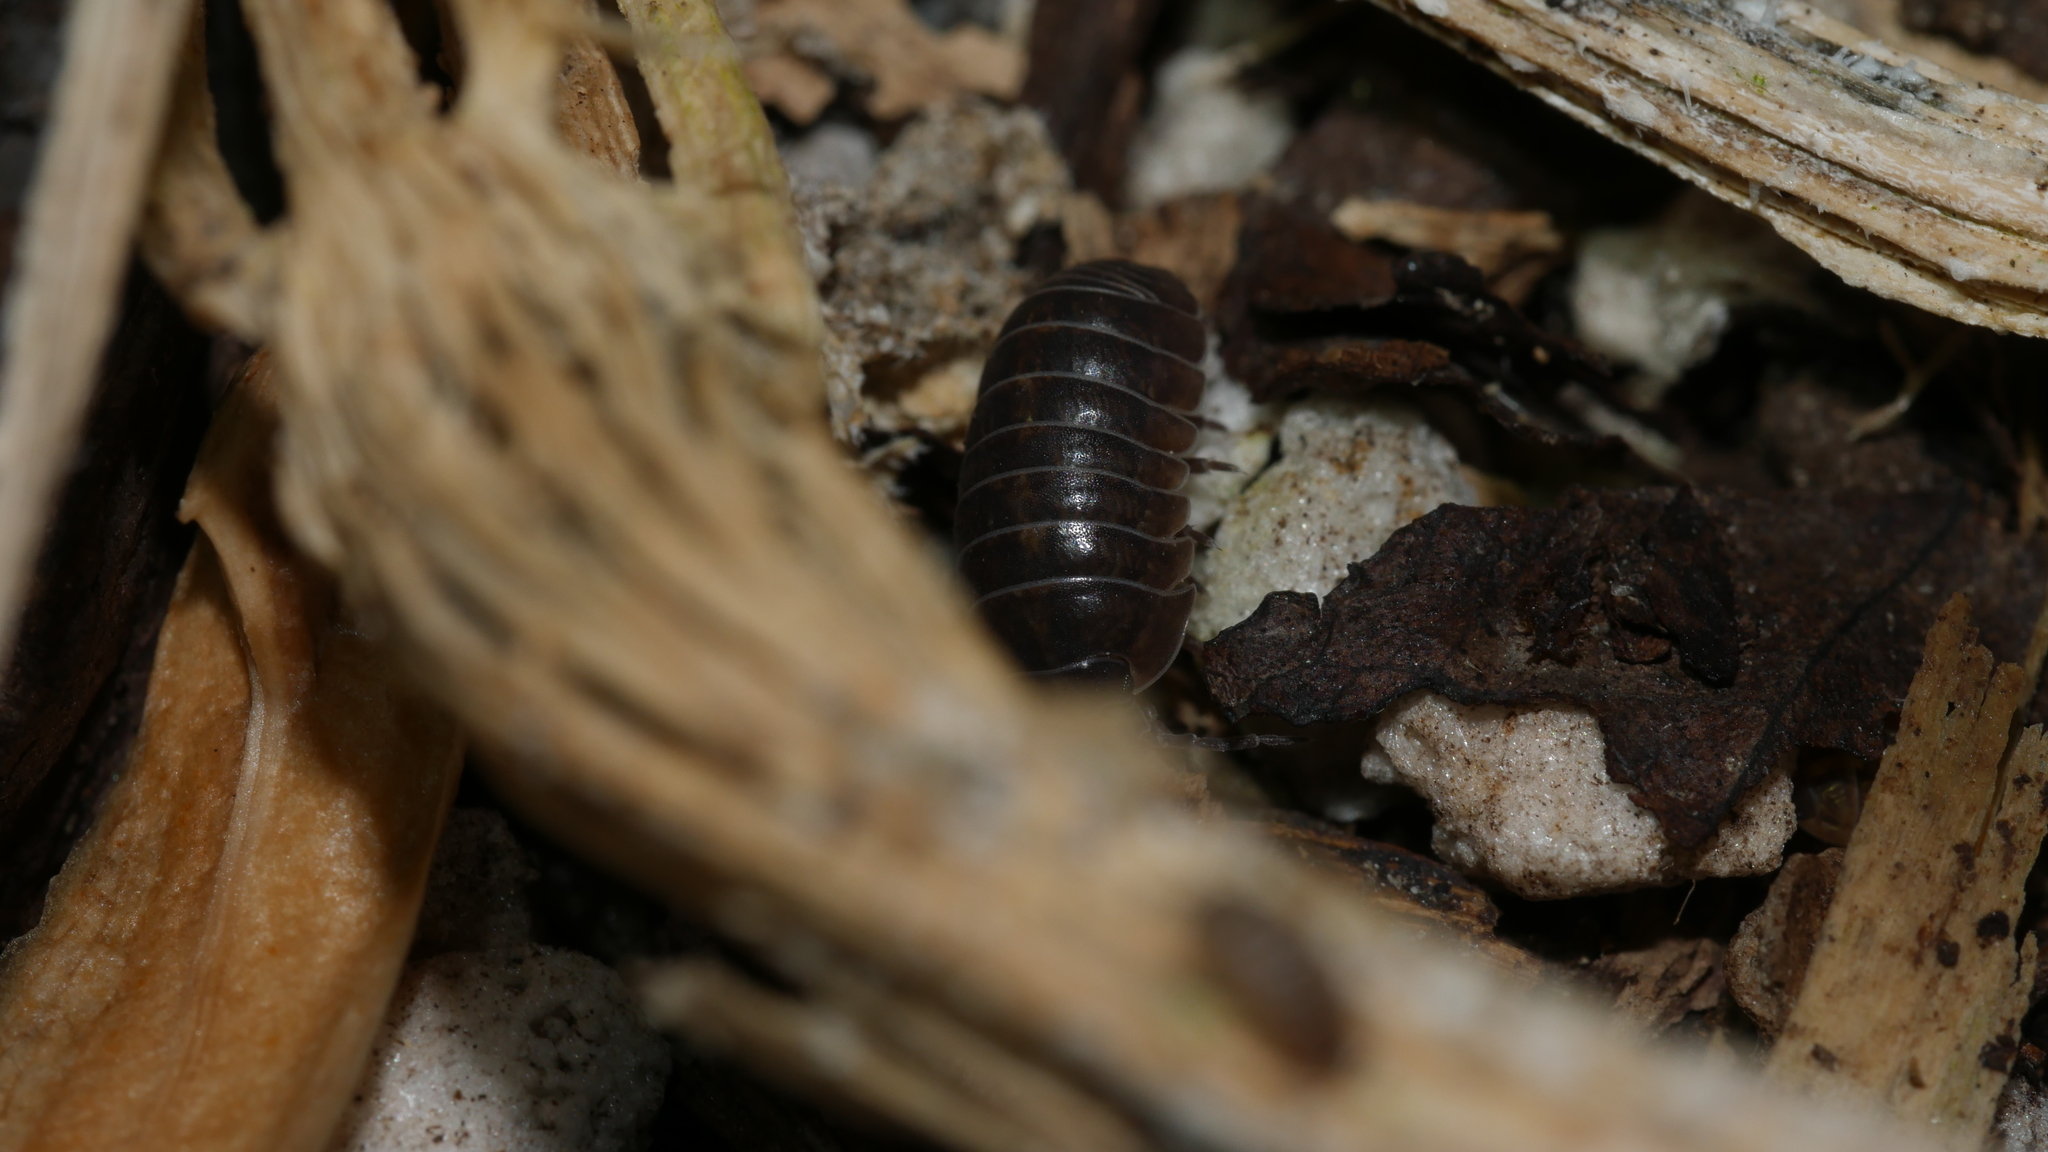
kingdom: Animalia
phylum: Arthropoda
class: Malacostraca
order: Isopoda
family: Armadillidiidae
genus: Armadillidium
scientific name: Armadillidium vulgare
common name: Common pill woodlouse
